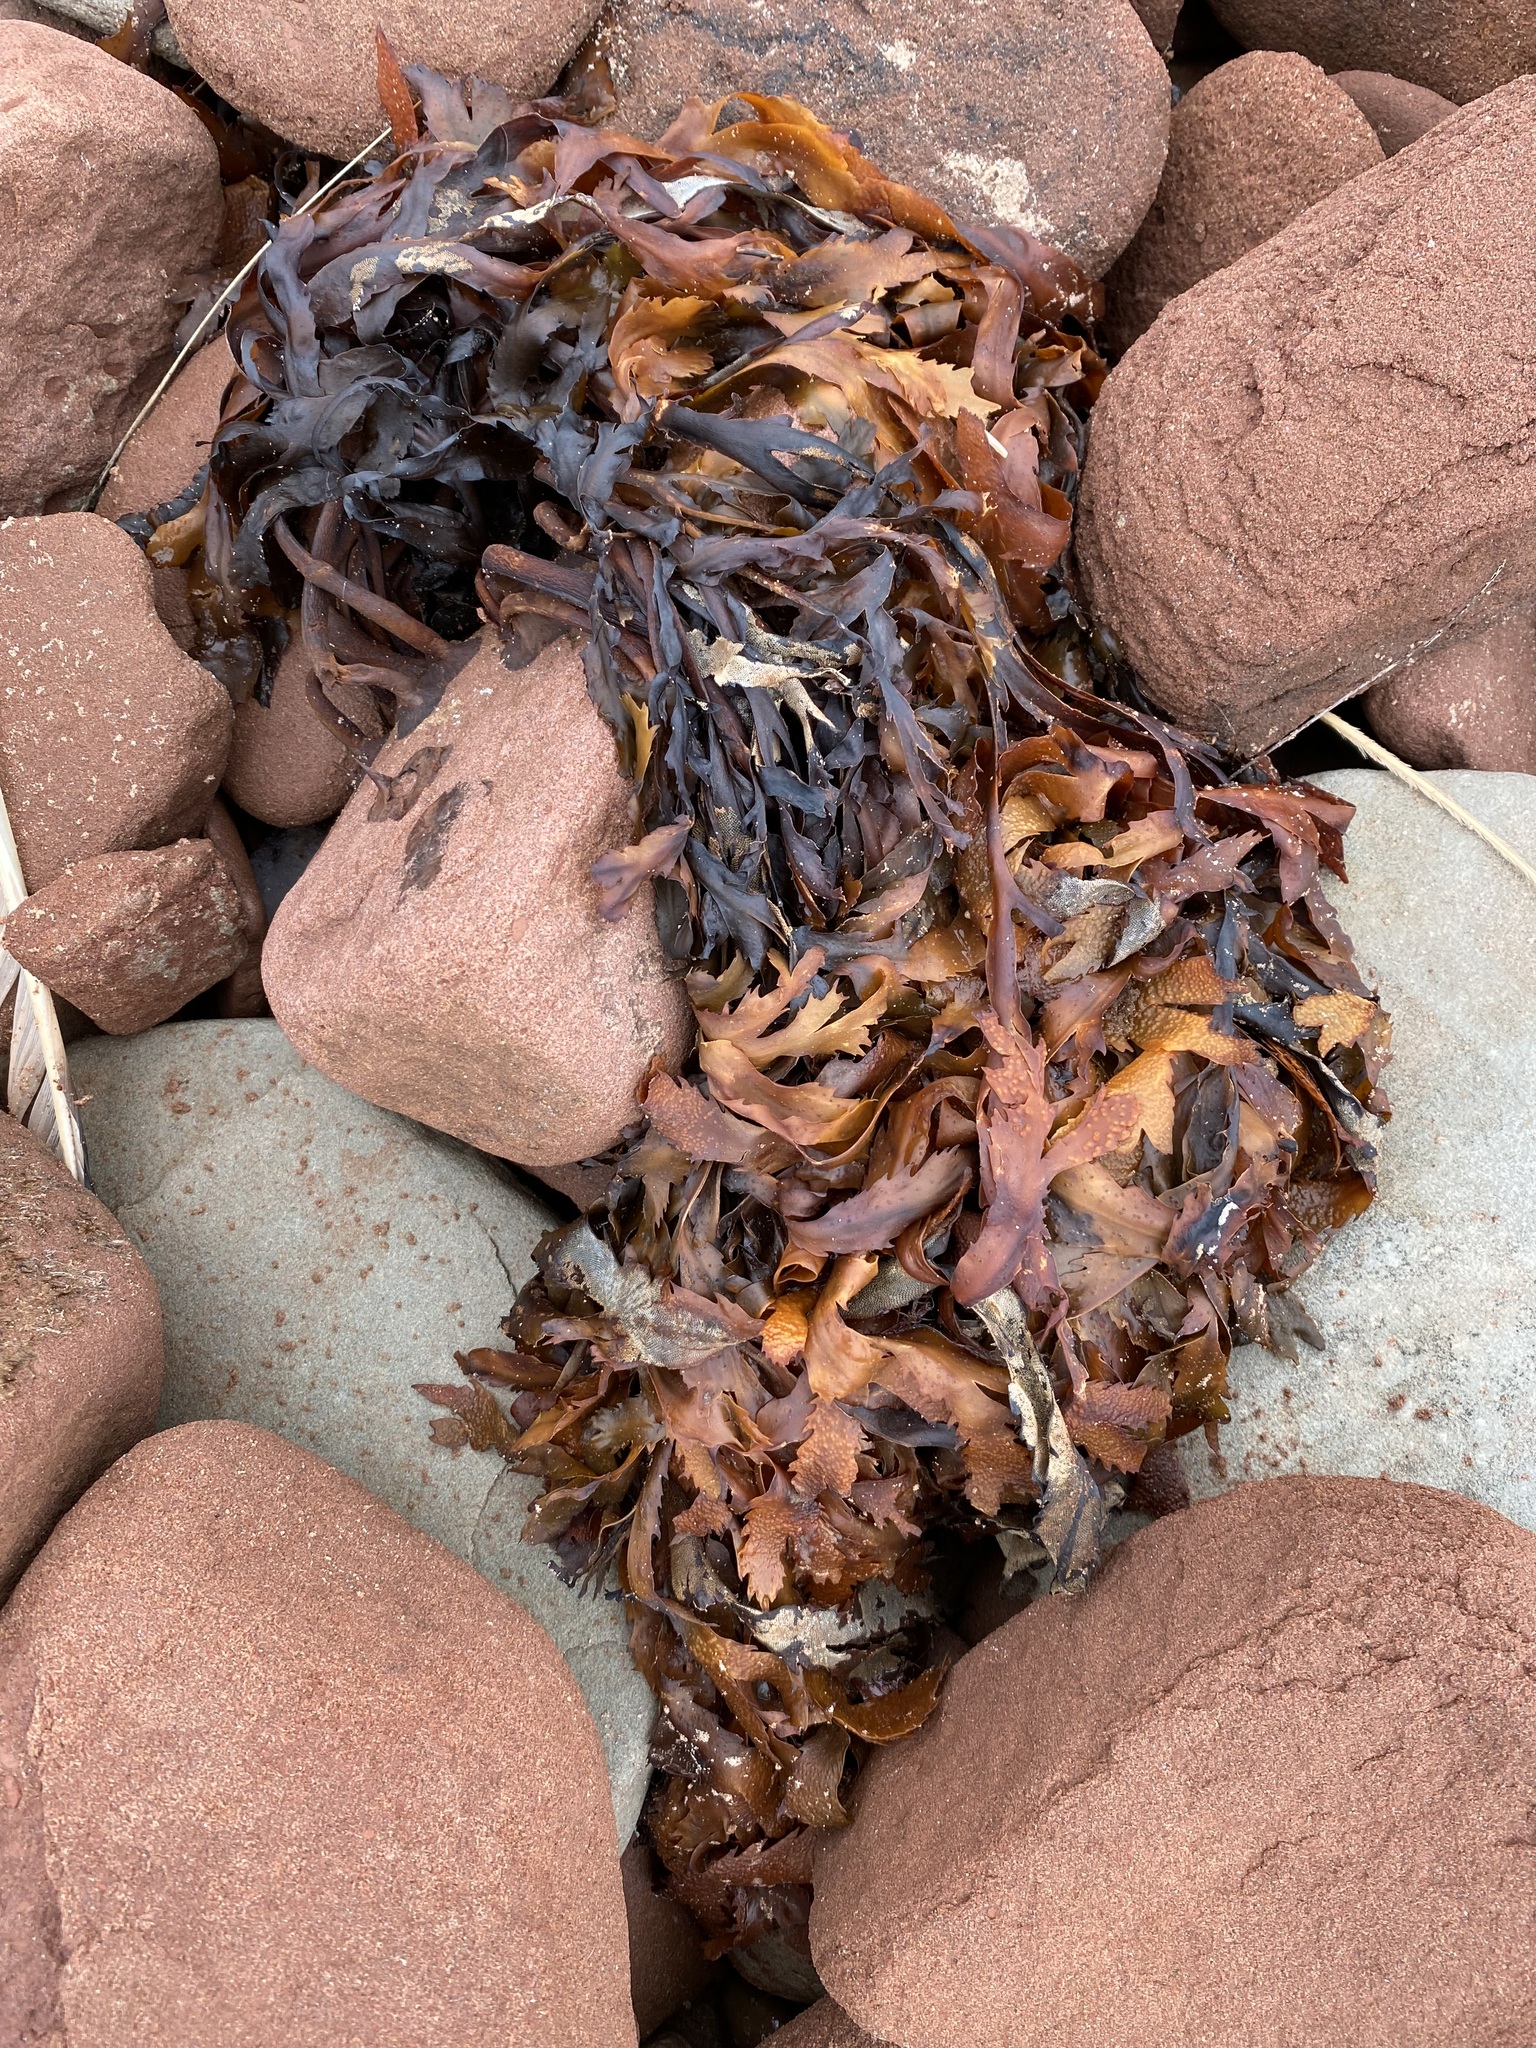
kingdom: Chromista
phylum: Ochrophyta
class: Phaeophyceae
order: Fucales
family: Fucaceae
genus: Fucus
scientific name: Fucus serratus
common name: Toothed wrack
